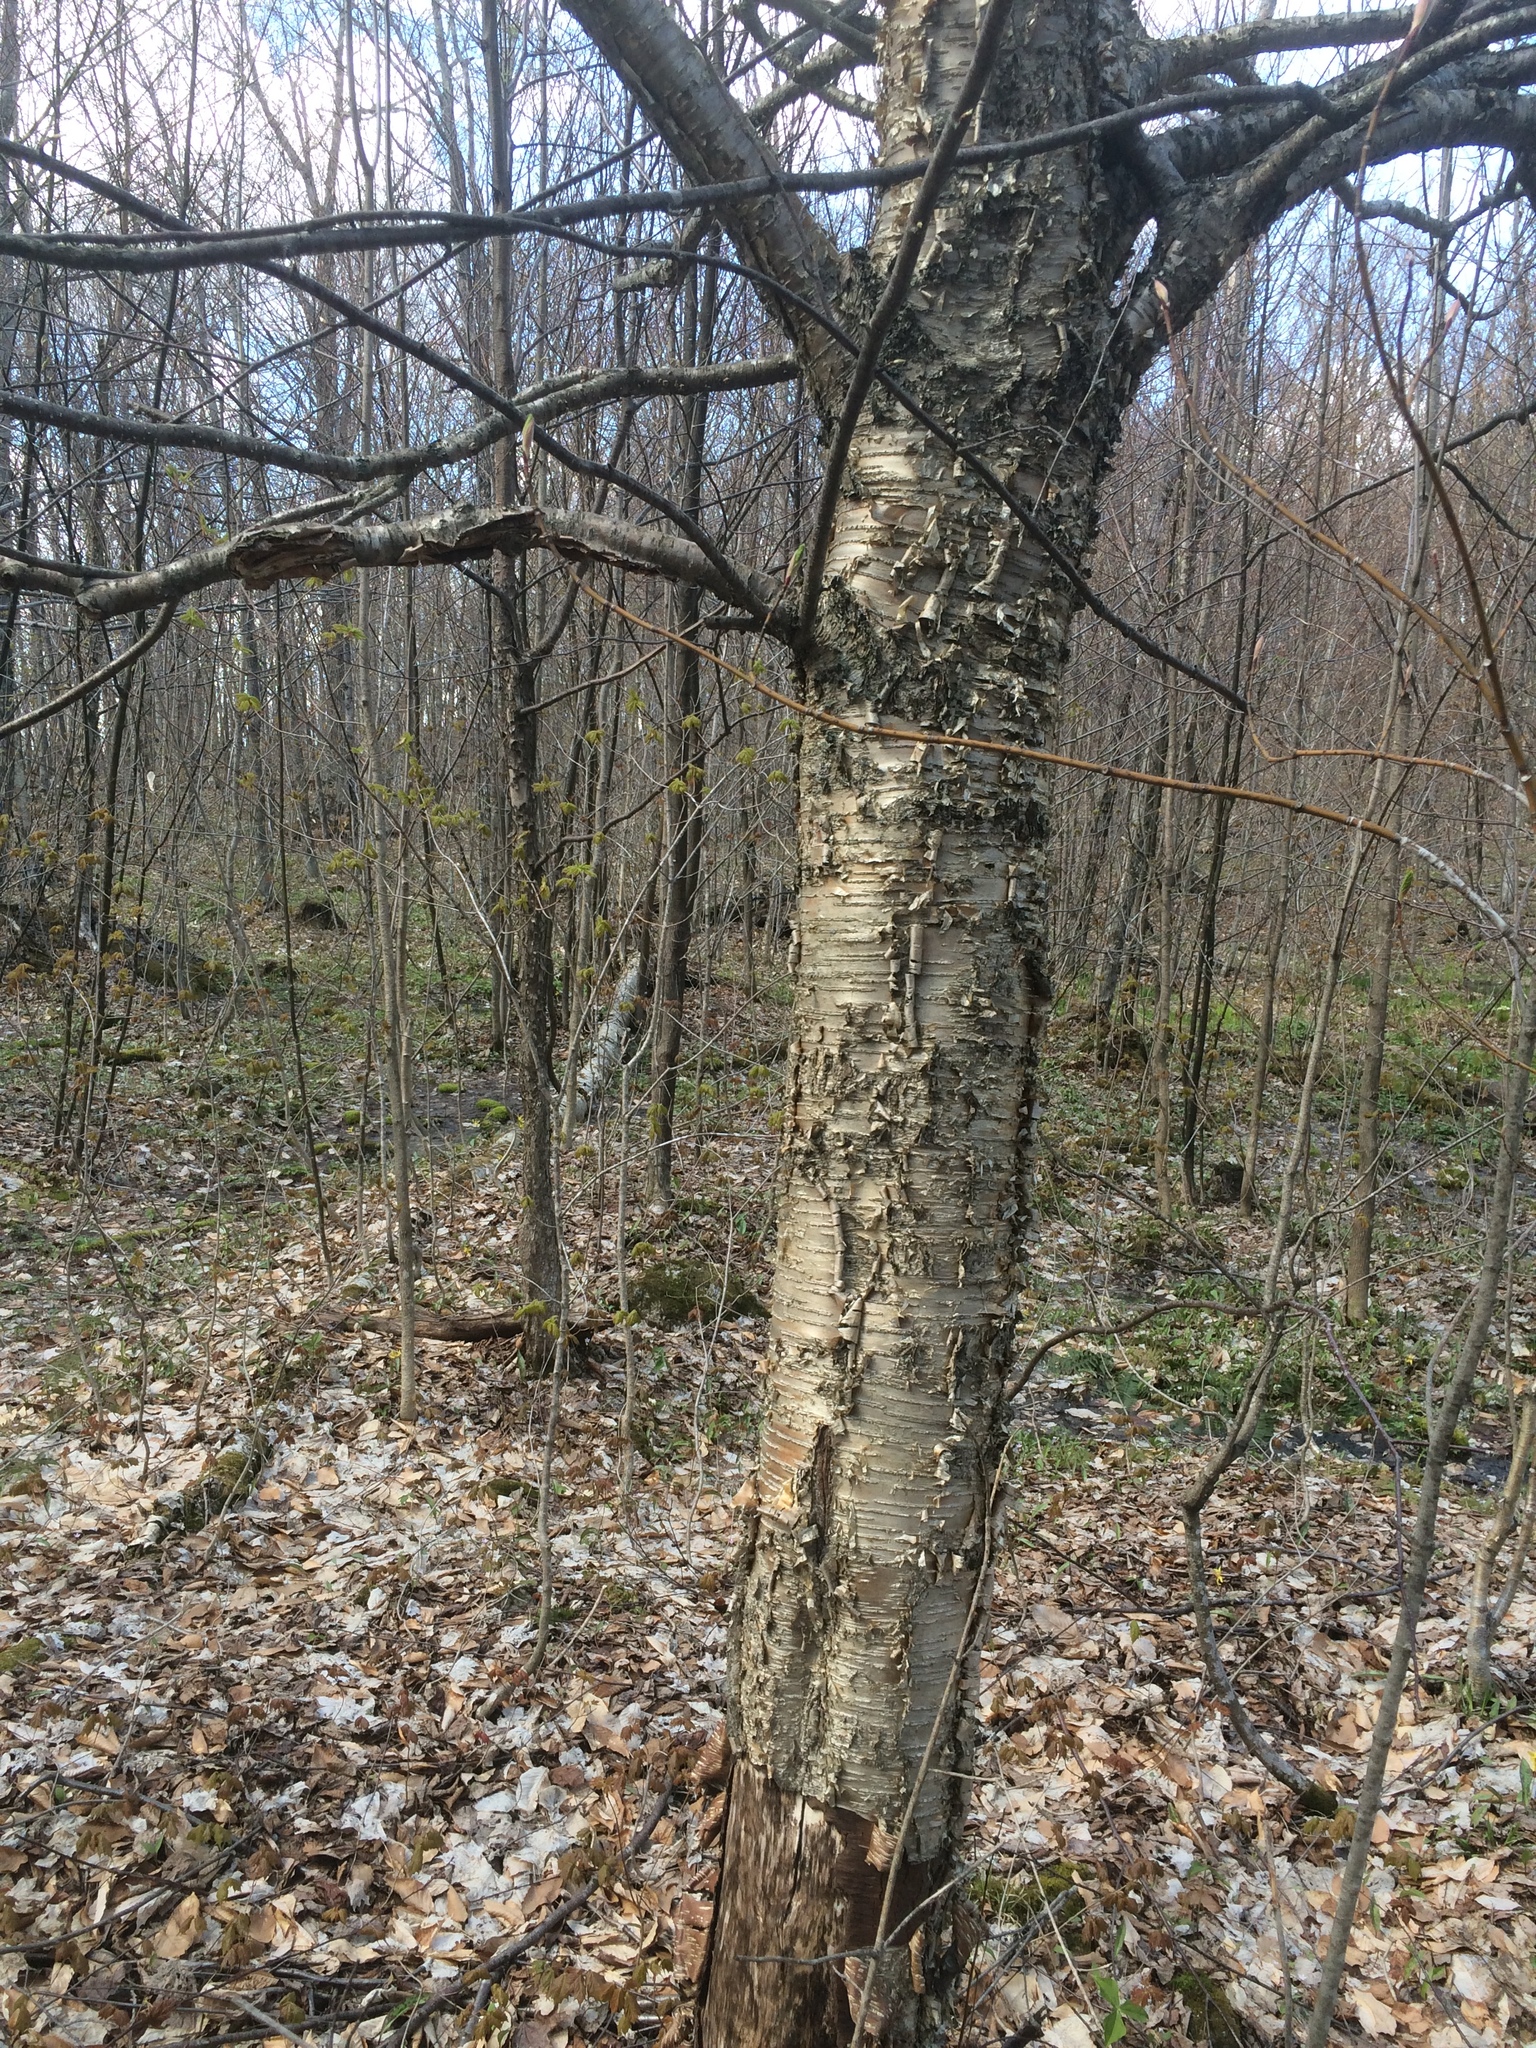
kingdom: Plantae
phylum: Tracheophyta
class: Magnoliopsida
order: Fagales
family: Betulaceae
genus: Betula
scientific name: Betula alleghaniensis
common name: Yellow birch
